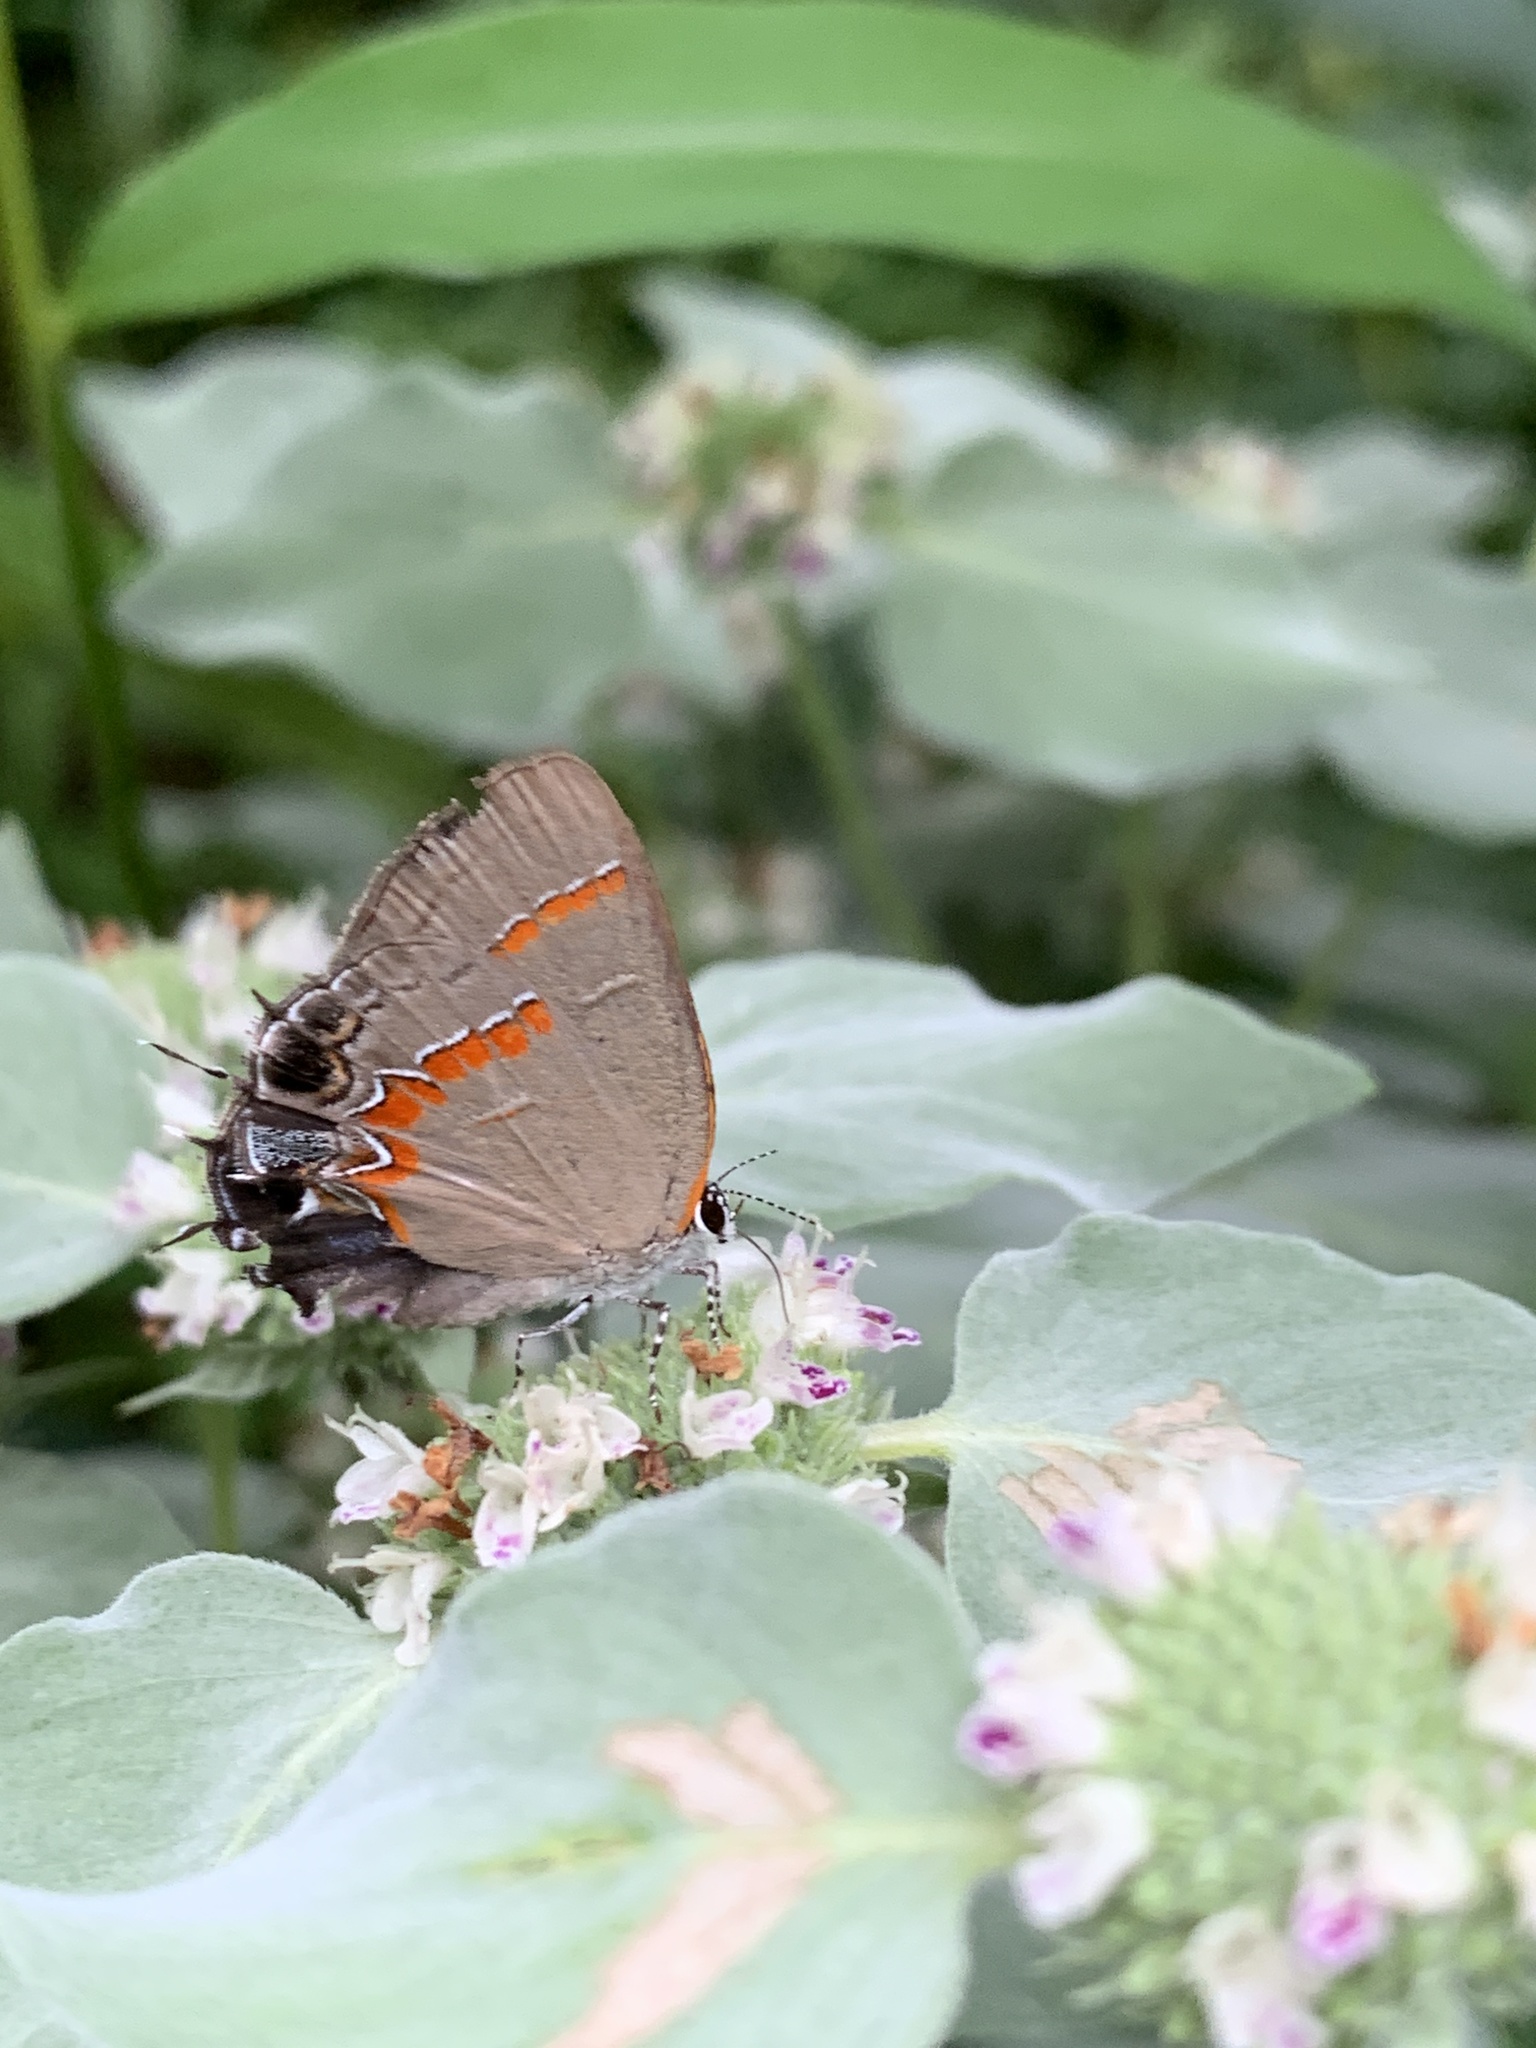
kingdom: Animalia
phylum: Arthropoda
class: Insecta
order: Lepidoptera
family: Lycaenidae
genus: Calycopis
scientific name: Calycopis cecrops
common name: Red-banded hairstreak
